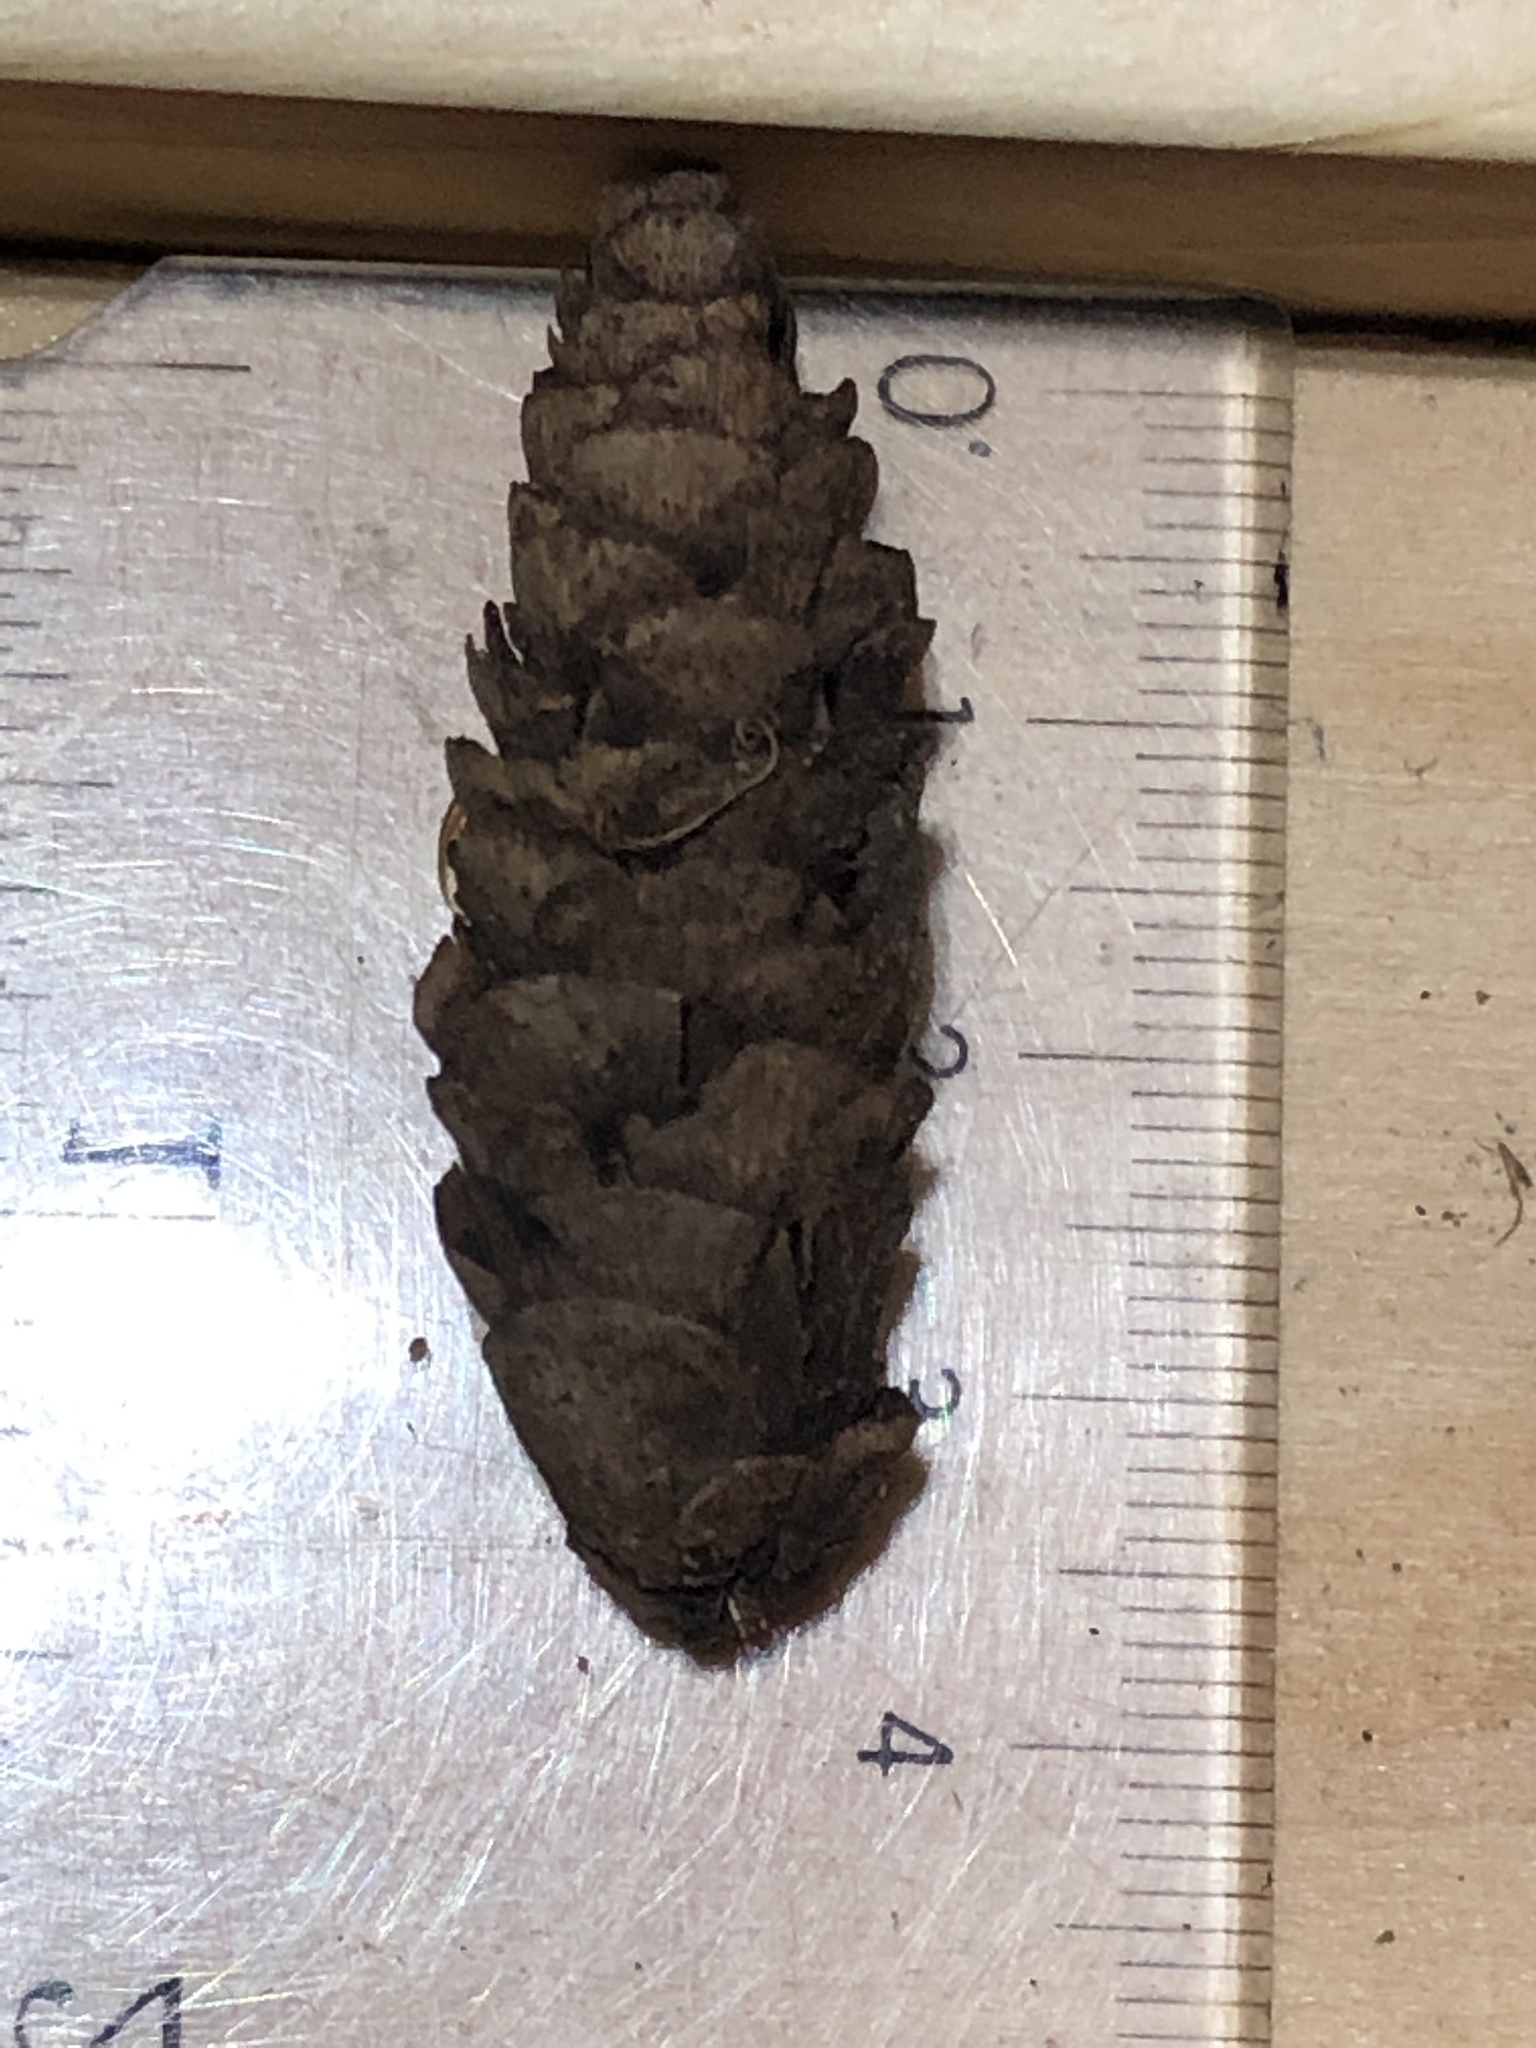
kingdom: Plantae
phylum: Tracheophyta
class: Pinopsida
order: Pinales
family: Pinaceae
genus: Picea
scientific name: Picea glauca
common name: White spruce
